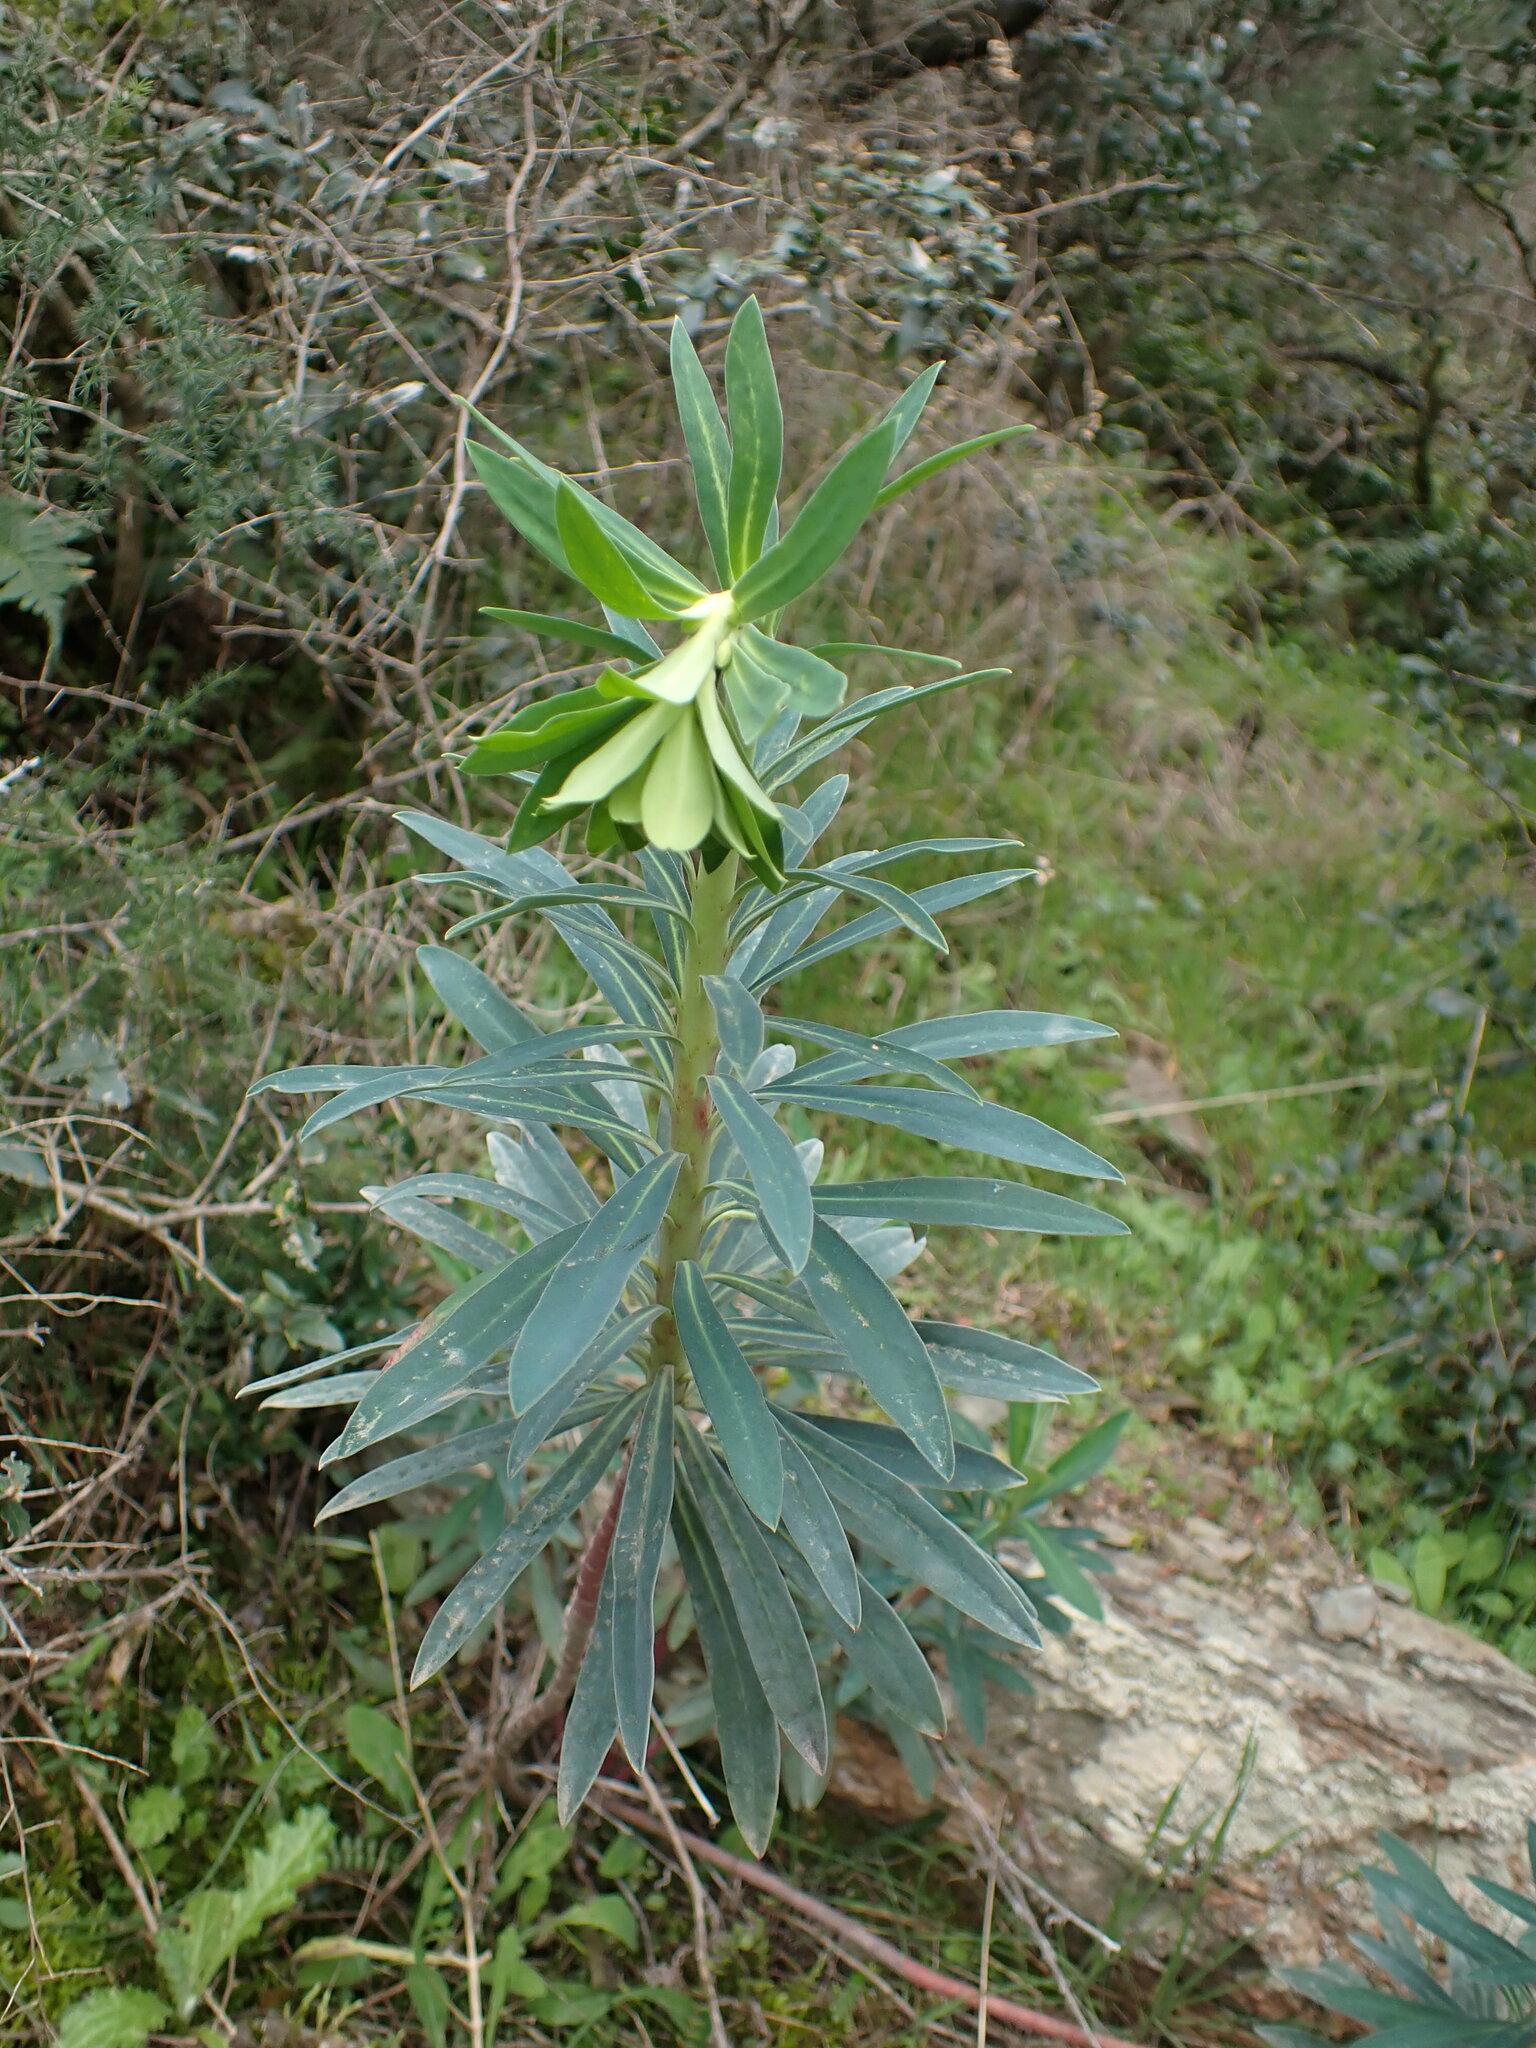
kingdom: Plantae
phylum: Tracheophyta
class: Magnoliopsida
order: Malpighiales
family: Euphorbiaceae
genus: Euphorbia
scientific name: Euphorbia characias
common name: Mediterranean spurge
